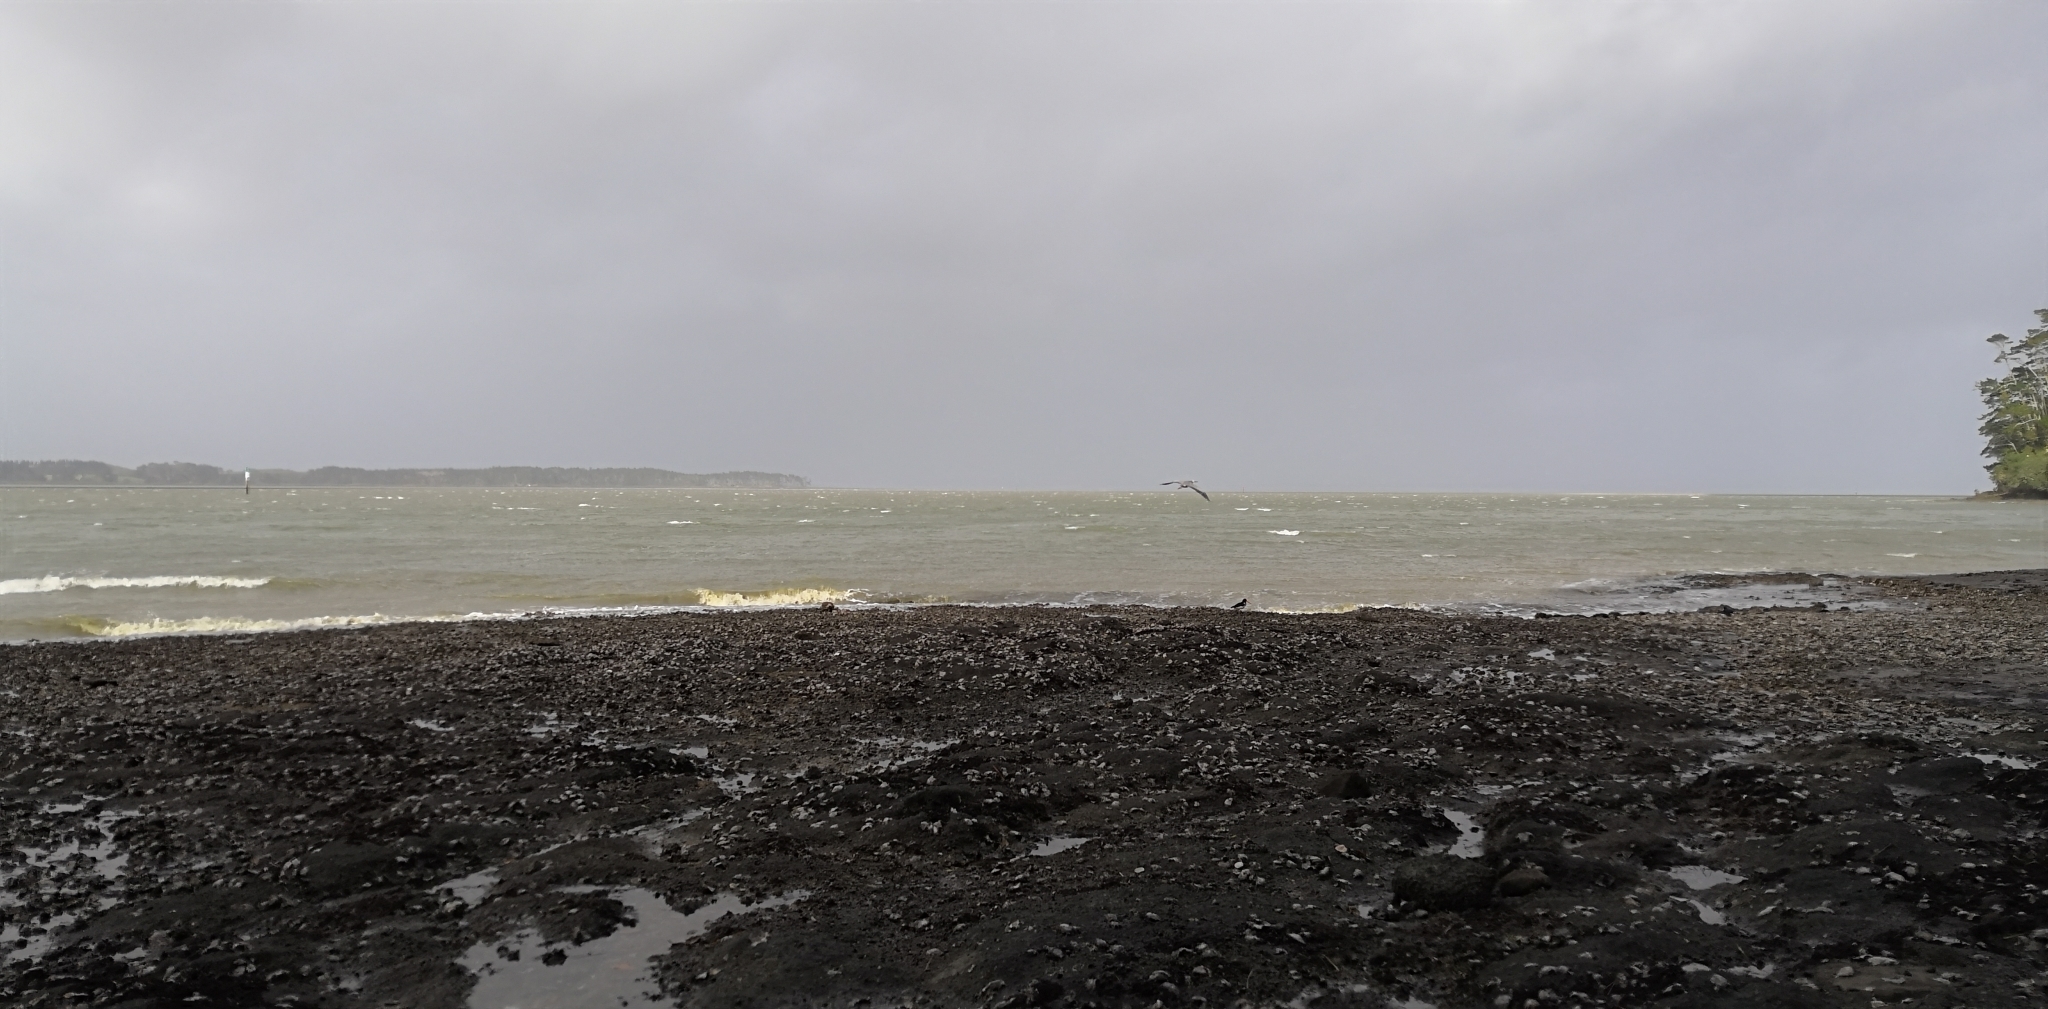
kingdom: Animalia
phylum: Chordata
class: Aves
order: Pelecaniformes
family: Ardeidae
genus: Egretta
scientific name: Egretta novaehollandiae
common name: White-faced heron
